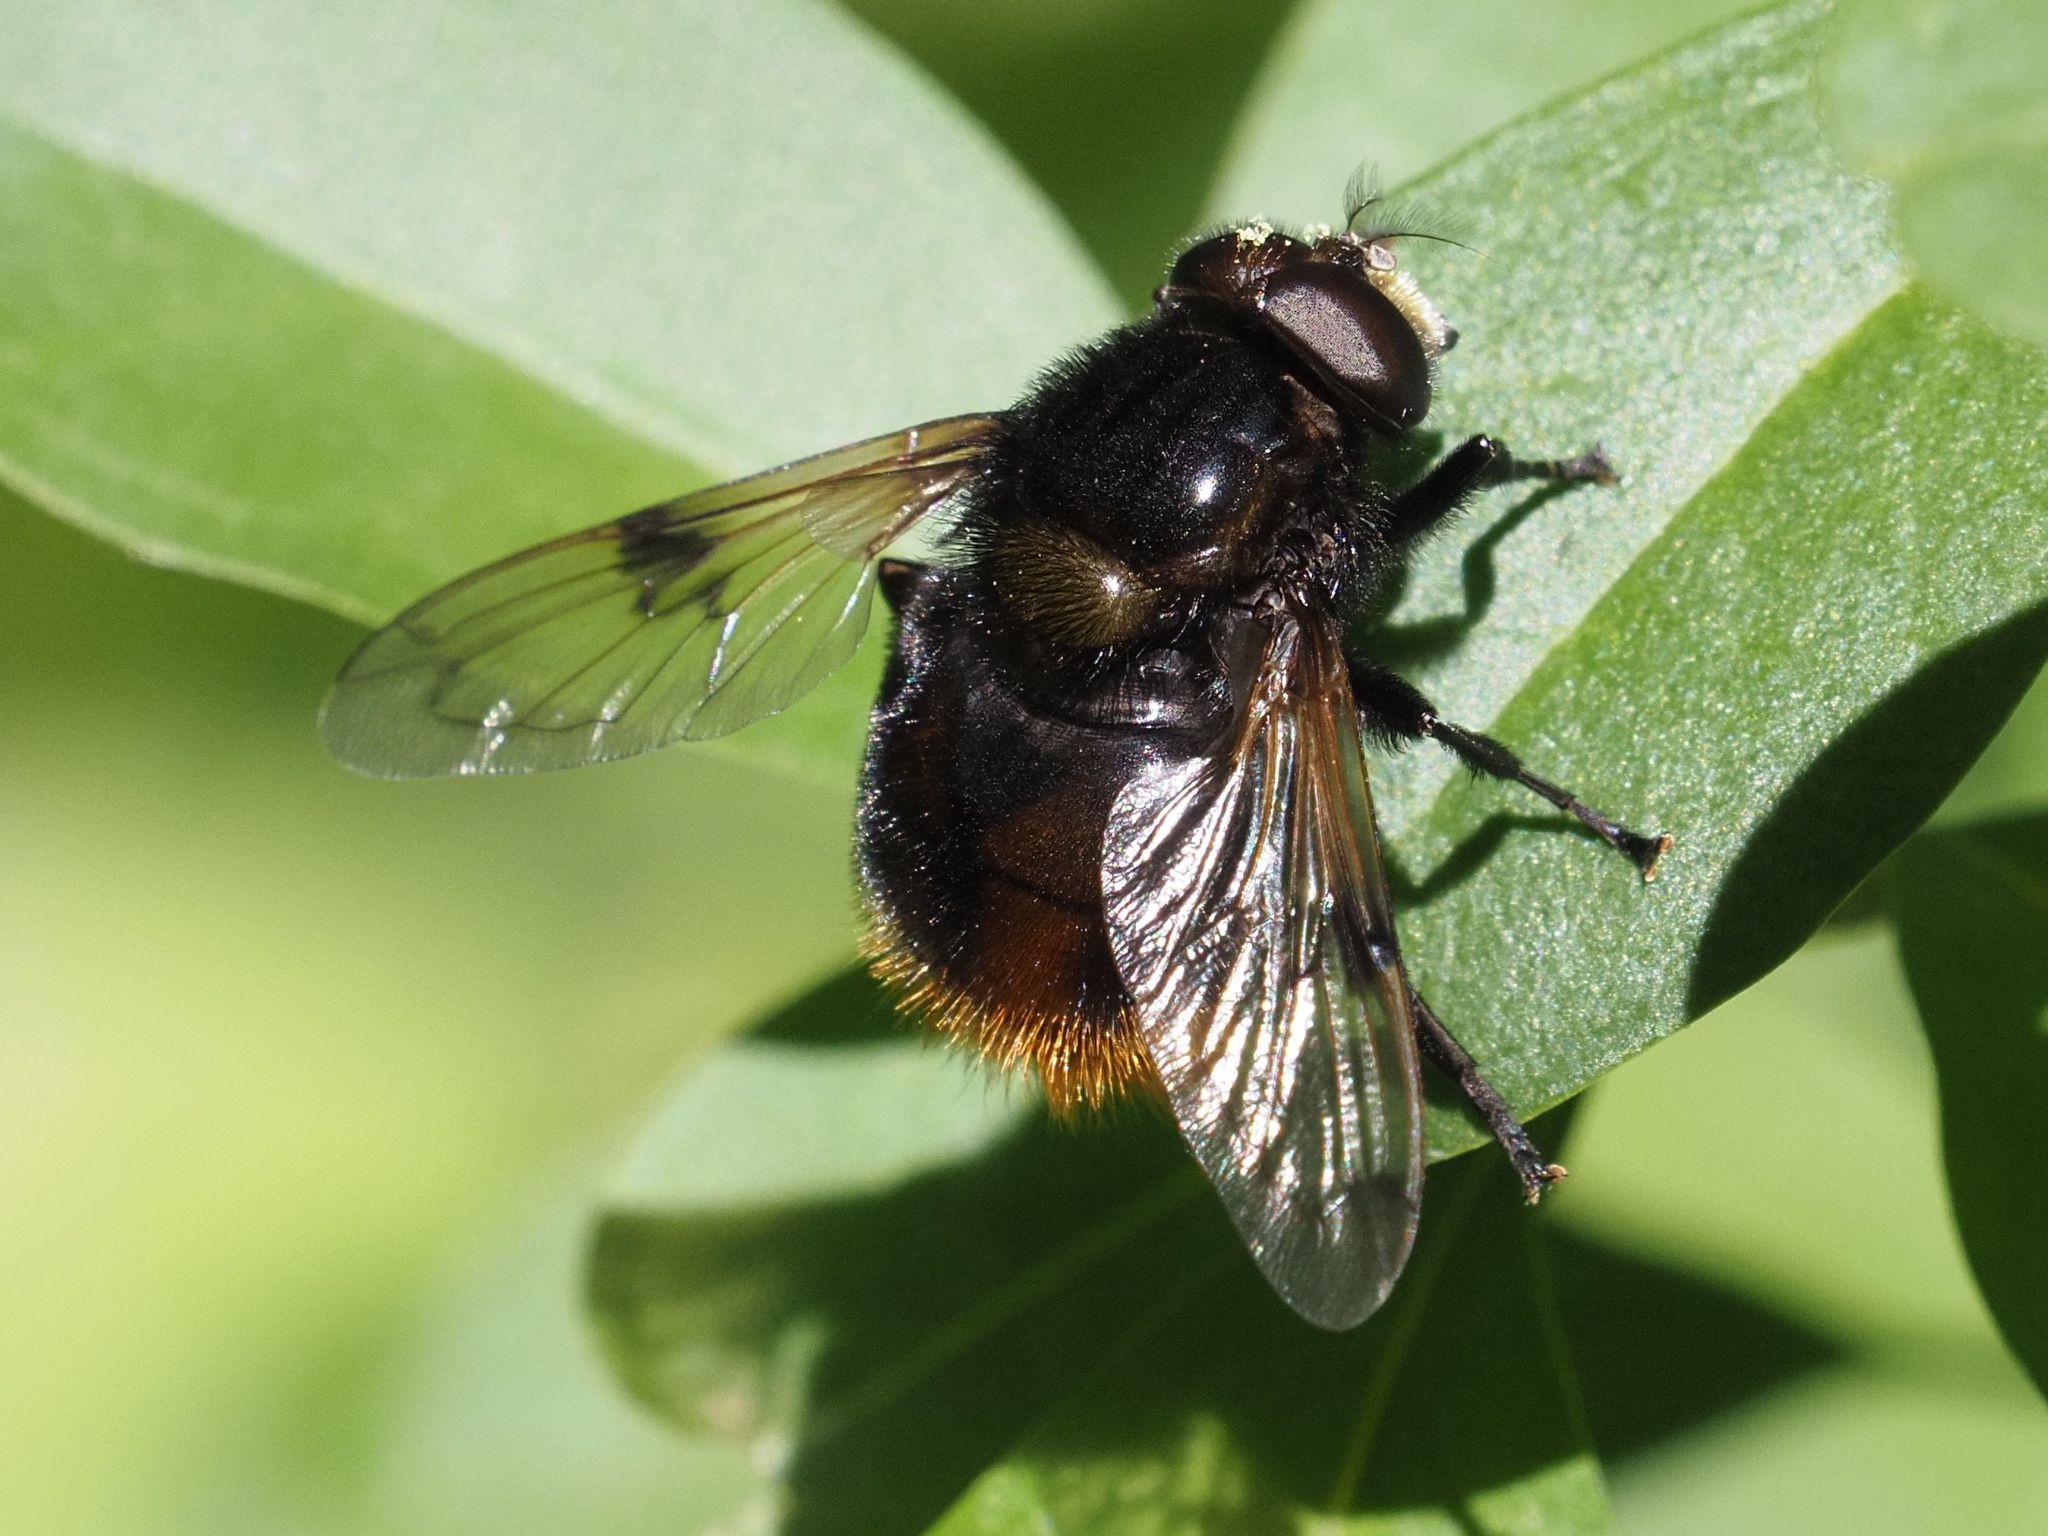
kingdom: Animalia
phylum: Arthropoda
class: Insecta
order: Diptera
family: Syrphidae
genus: Volucella
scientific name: Volucella bombylans
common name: Bumble bee hover fly
